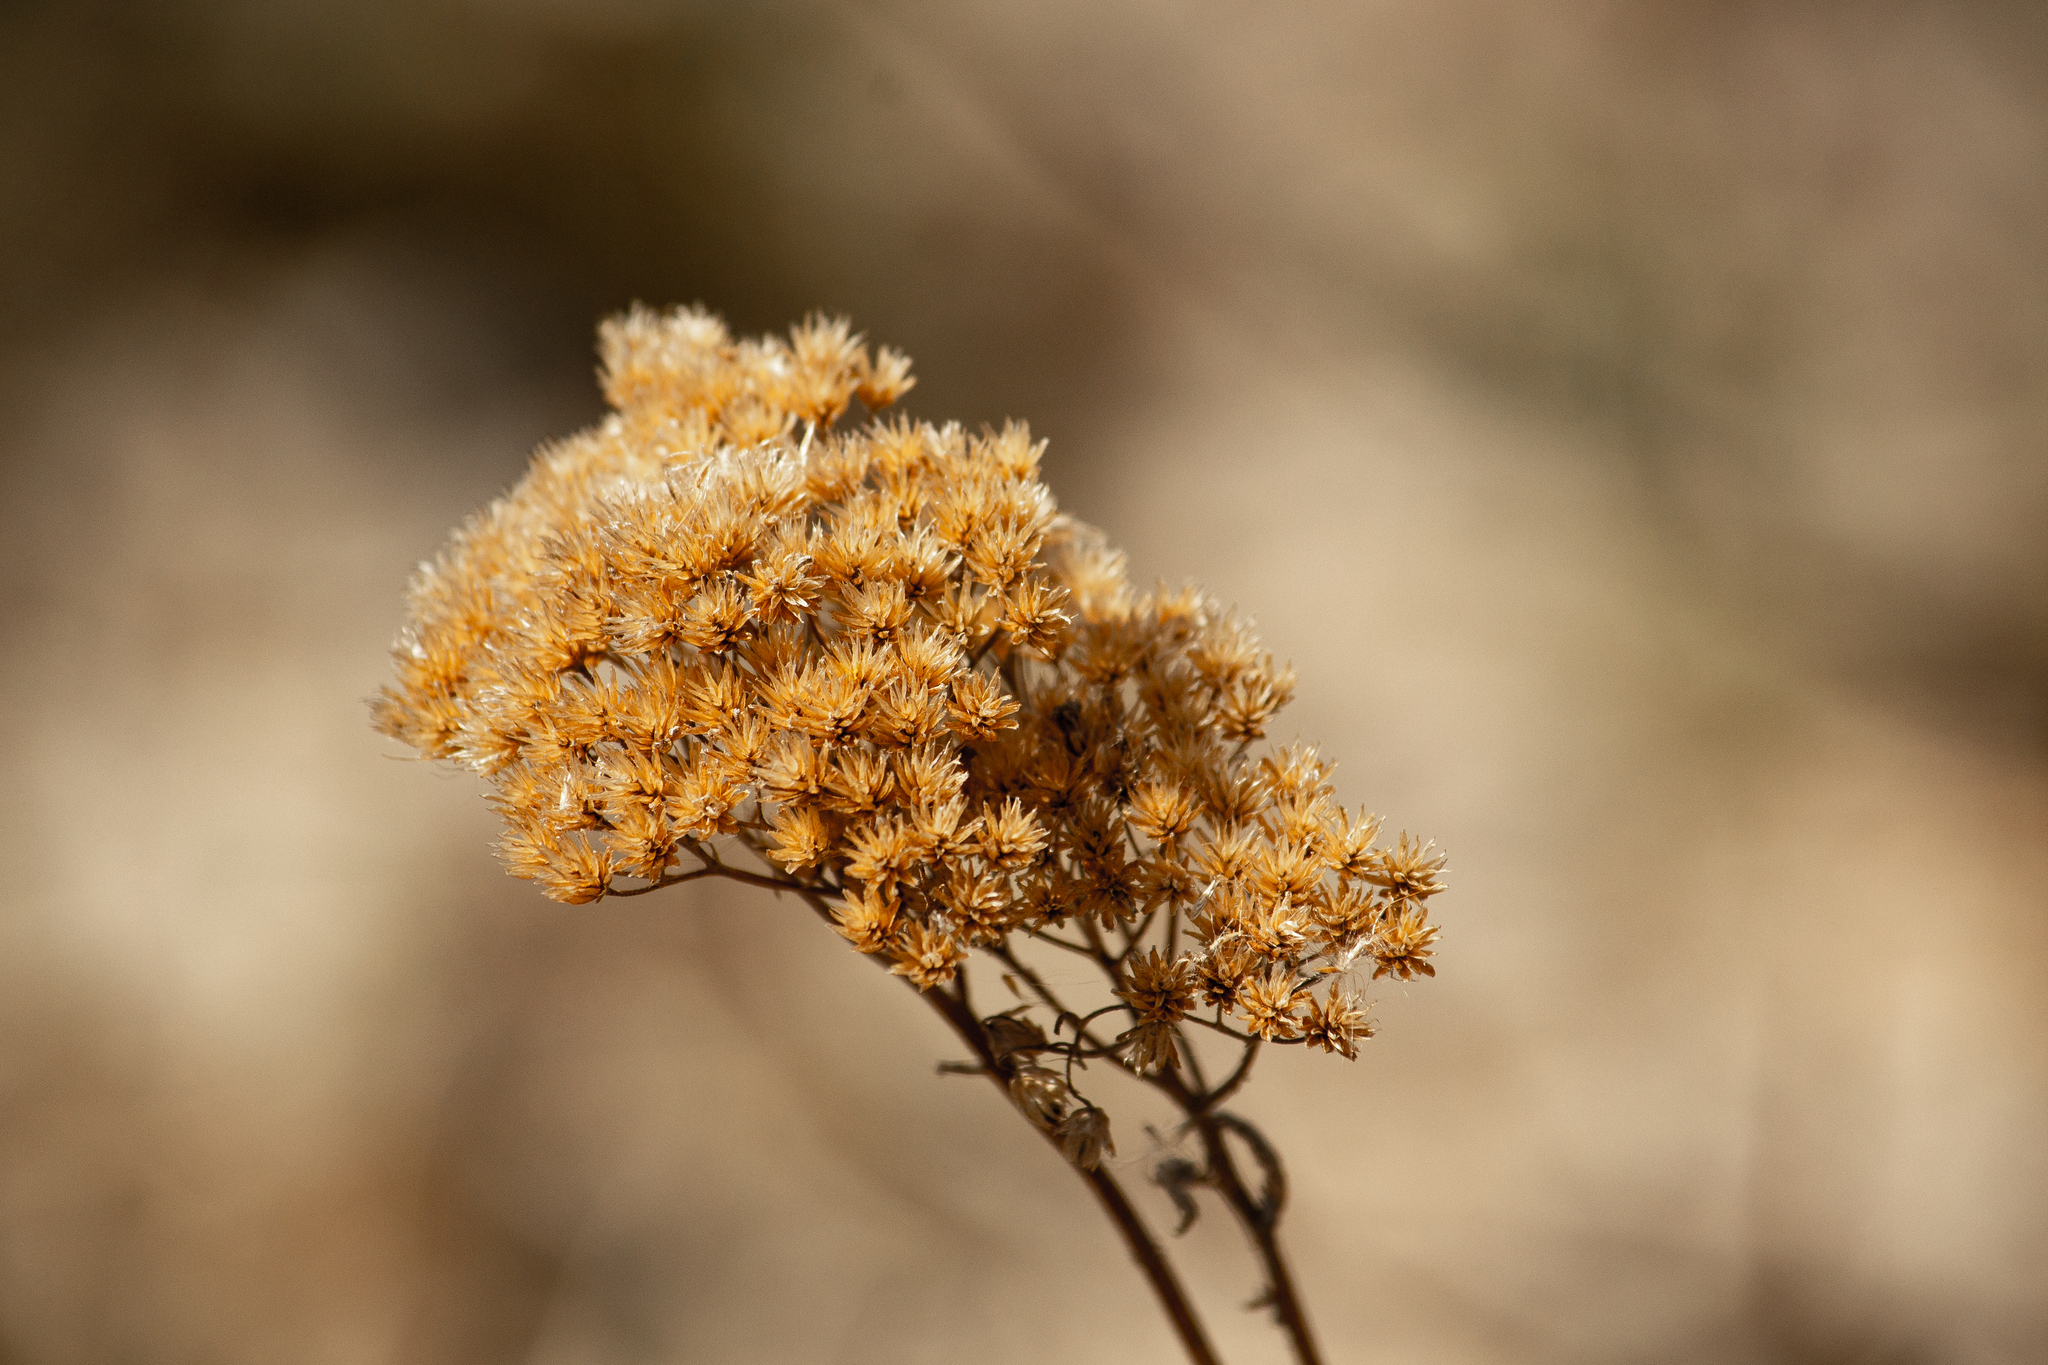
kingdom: Plantae
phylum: Tracheophyta
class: Magnoliopsida
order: Asterales
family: Asteraceae
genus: Achillea
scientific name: Achillea
